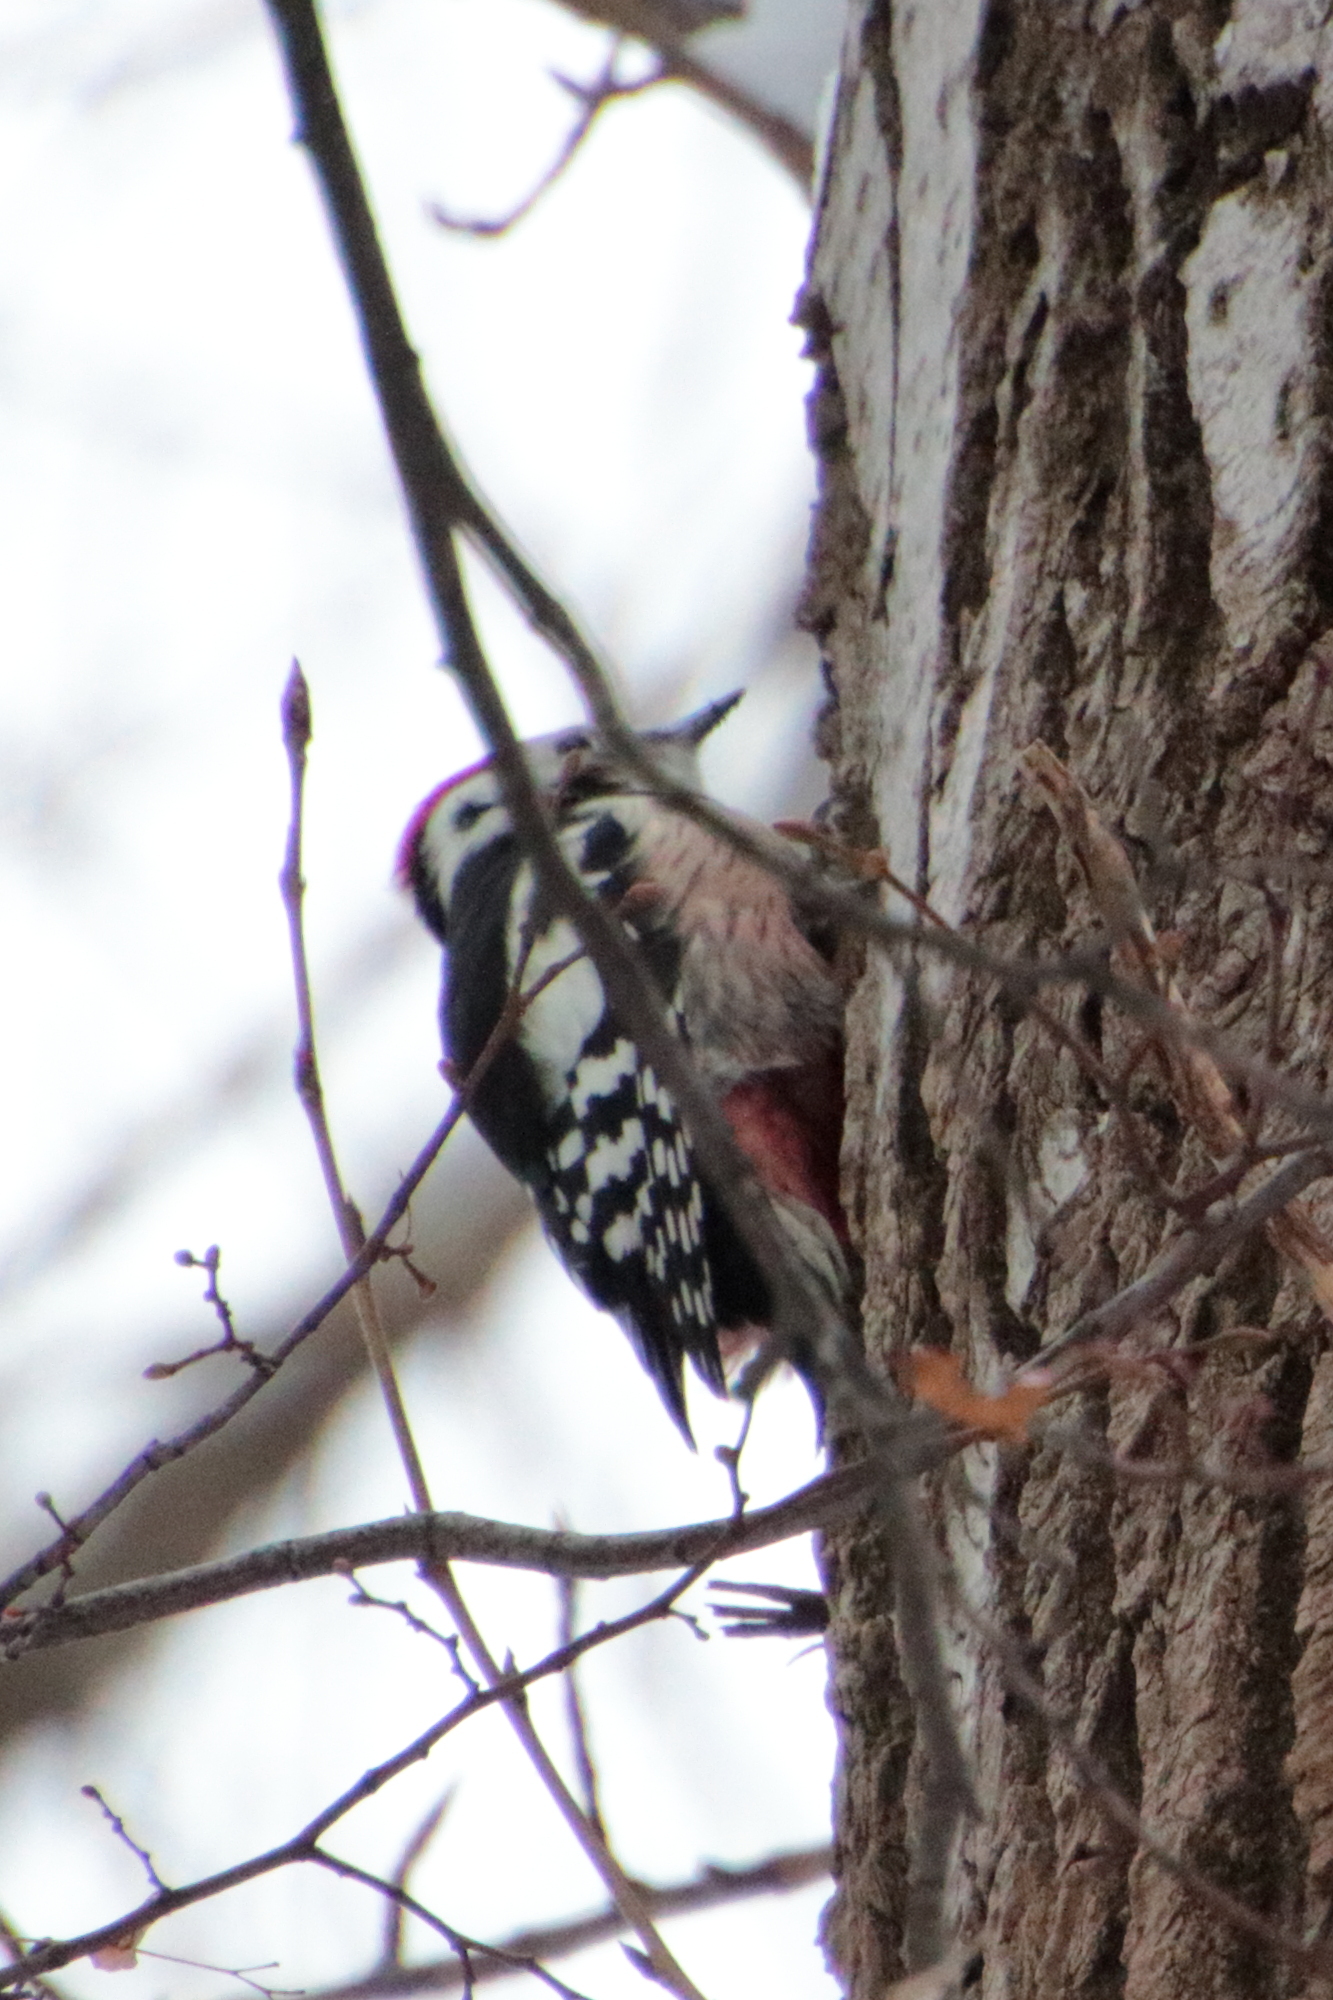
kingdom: Animalia
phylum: Chordata
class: Aves
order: Piciformes
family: Picidae
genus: Dendrocoptes
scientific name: Dendrocoptes medius
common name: Middle spotted woodpecker
